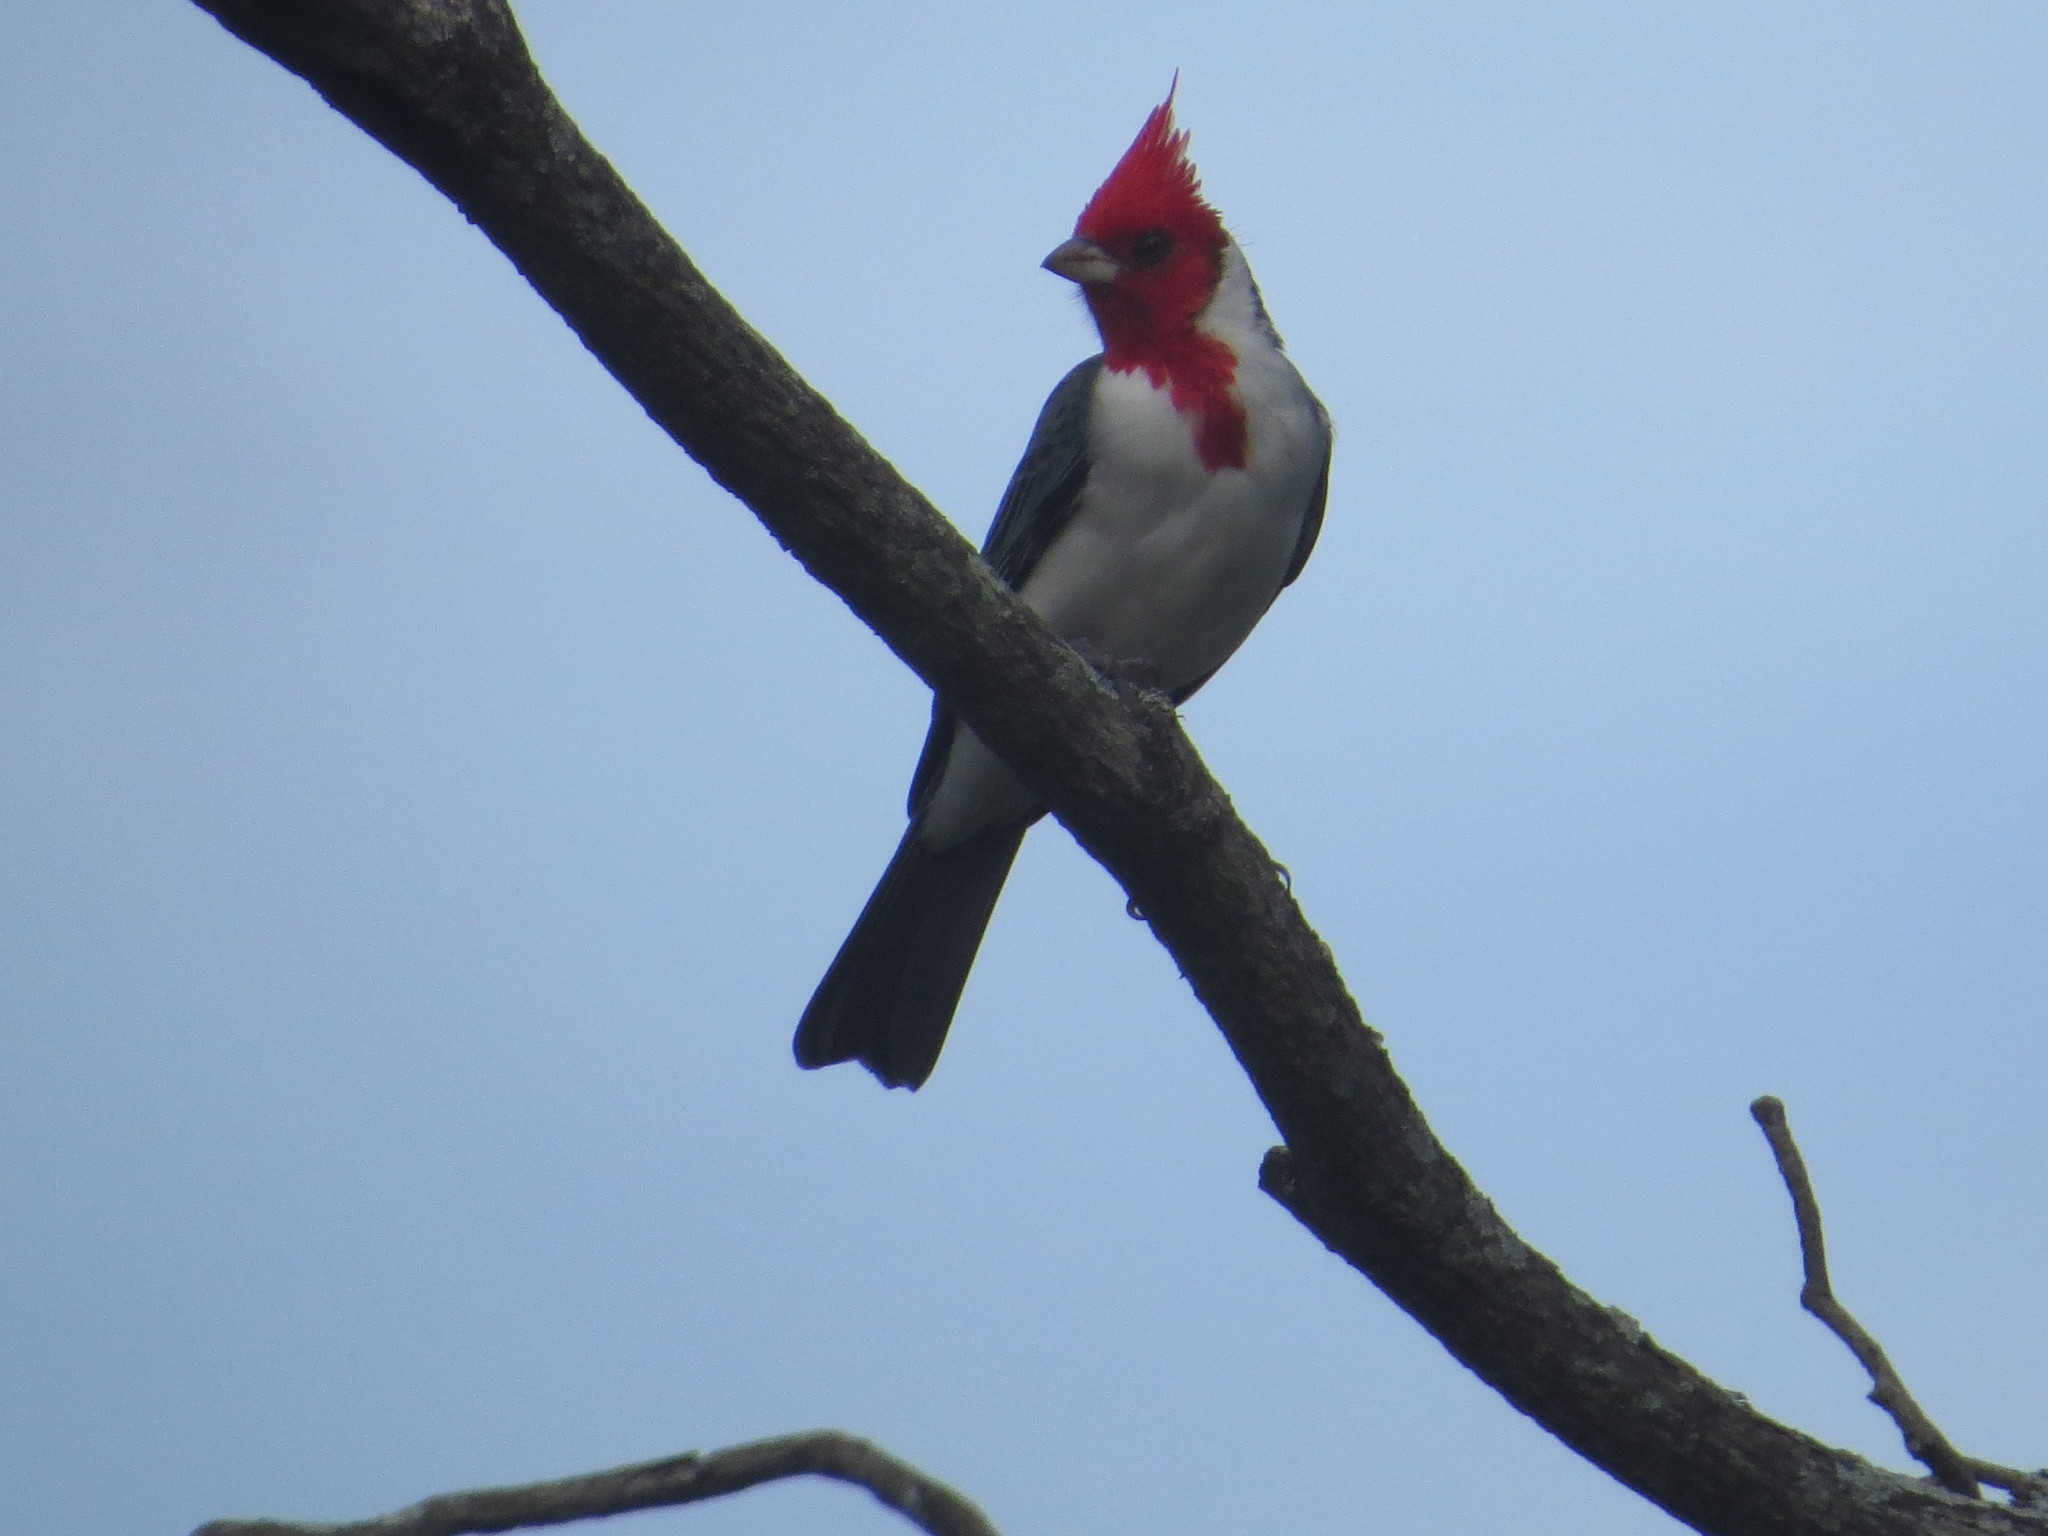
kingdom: Animalia
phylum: Chordata
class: Aves
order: Passeriformes
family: Thraupidae
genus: Paroaria
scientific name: Paroaria coronata
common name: Red-crested cardinal
